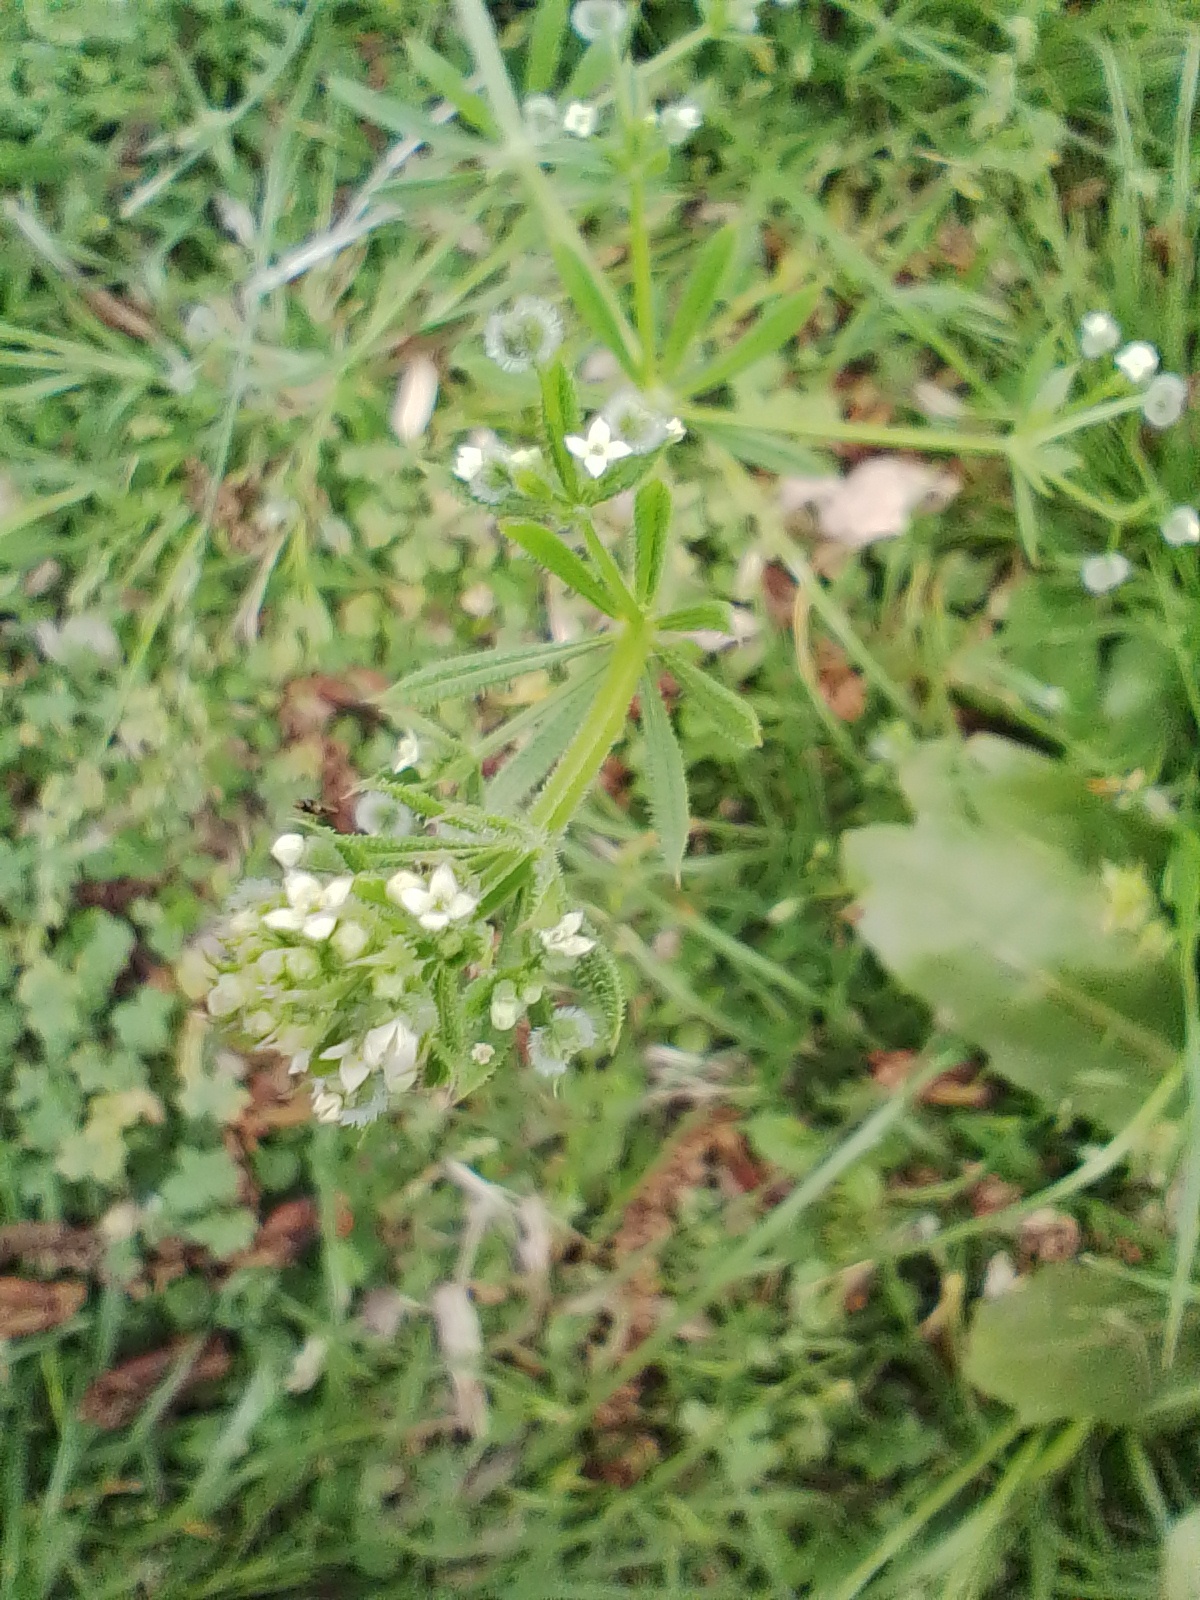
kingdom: Plantae
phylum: Tracheophyta
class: Magnoliopsida
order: Caryophyllales
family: Caryophyllaceae
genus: Stellaria
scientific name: Stellaria media
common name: Common chickweed
